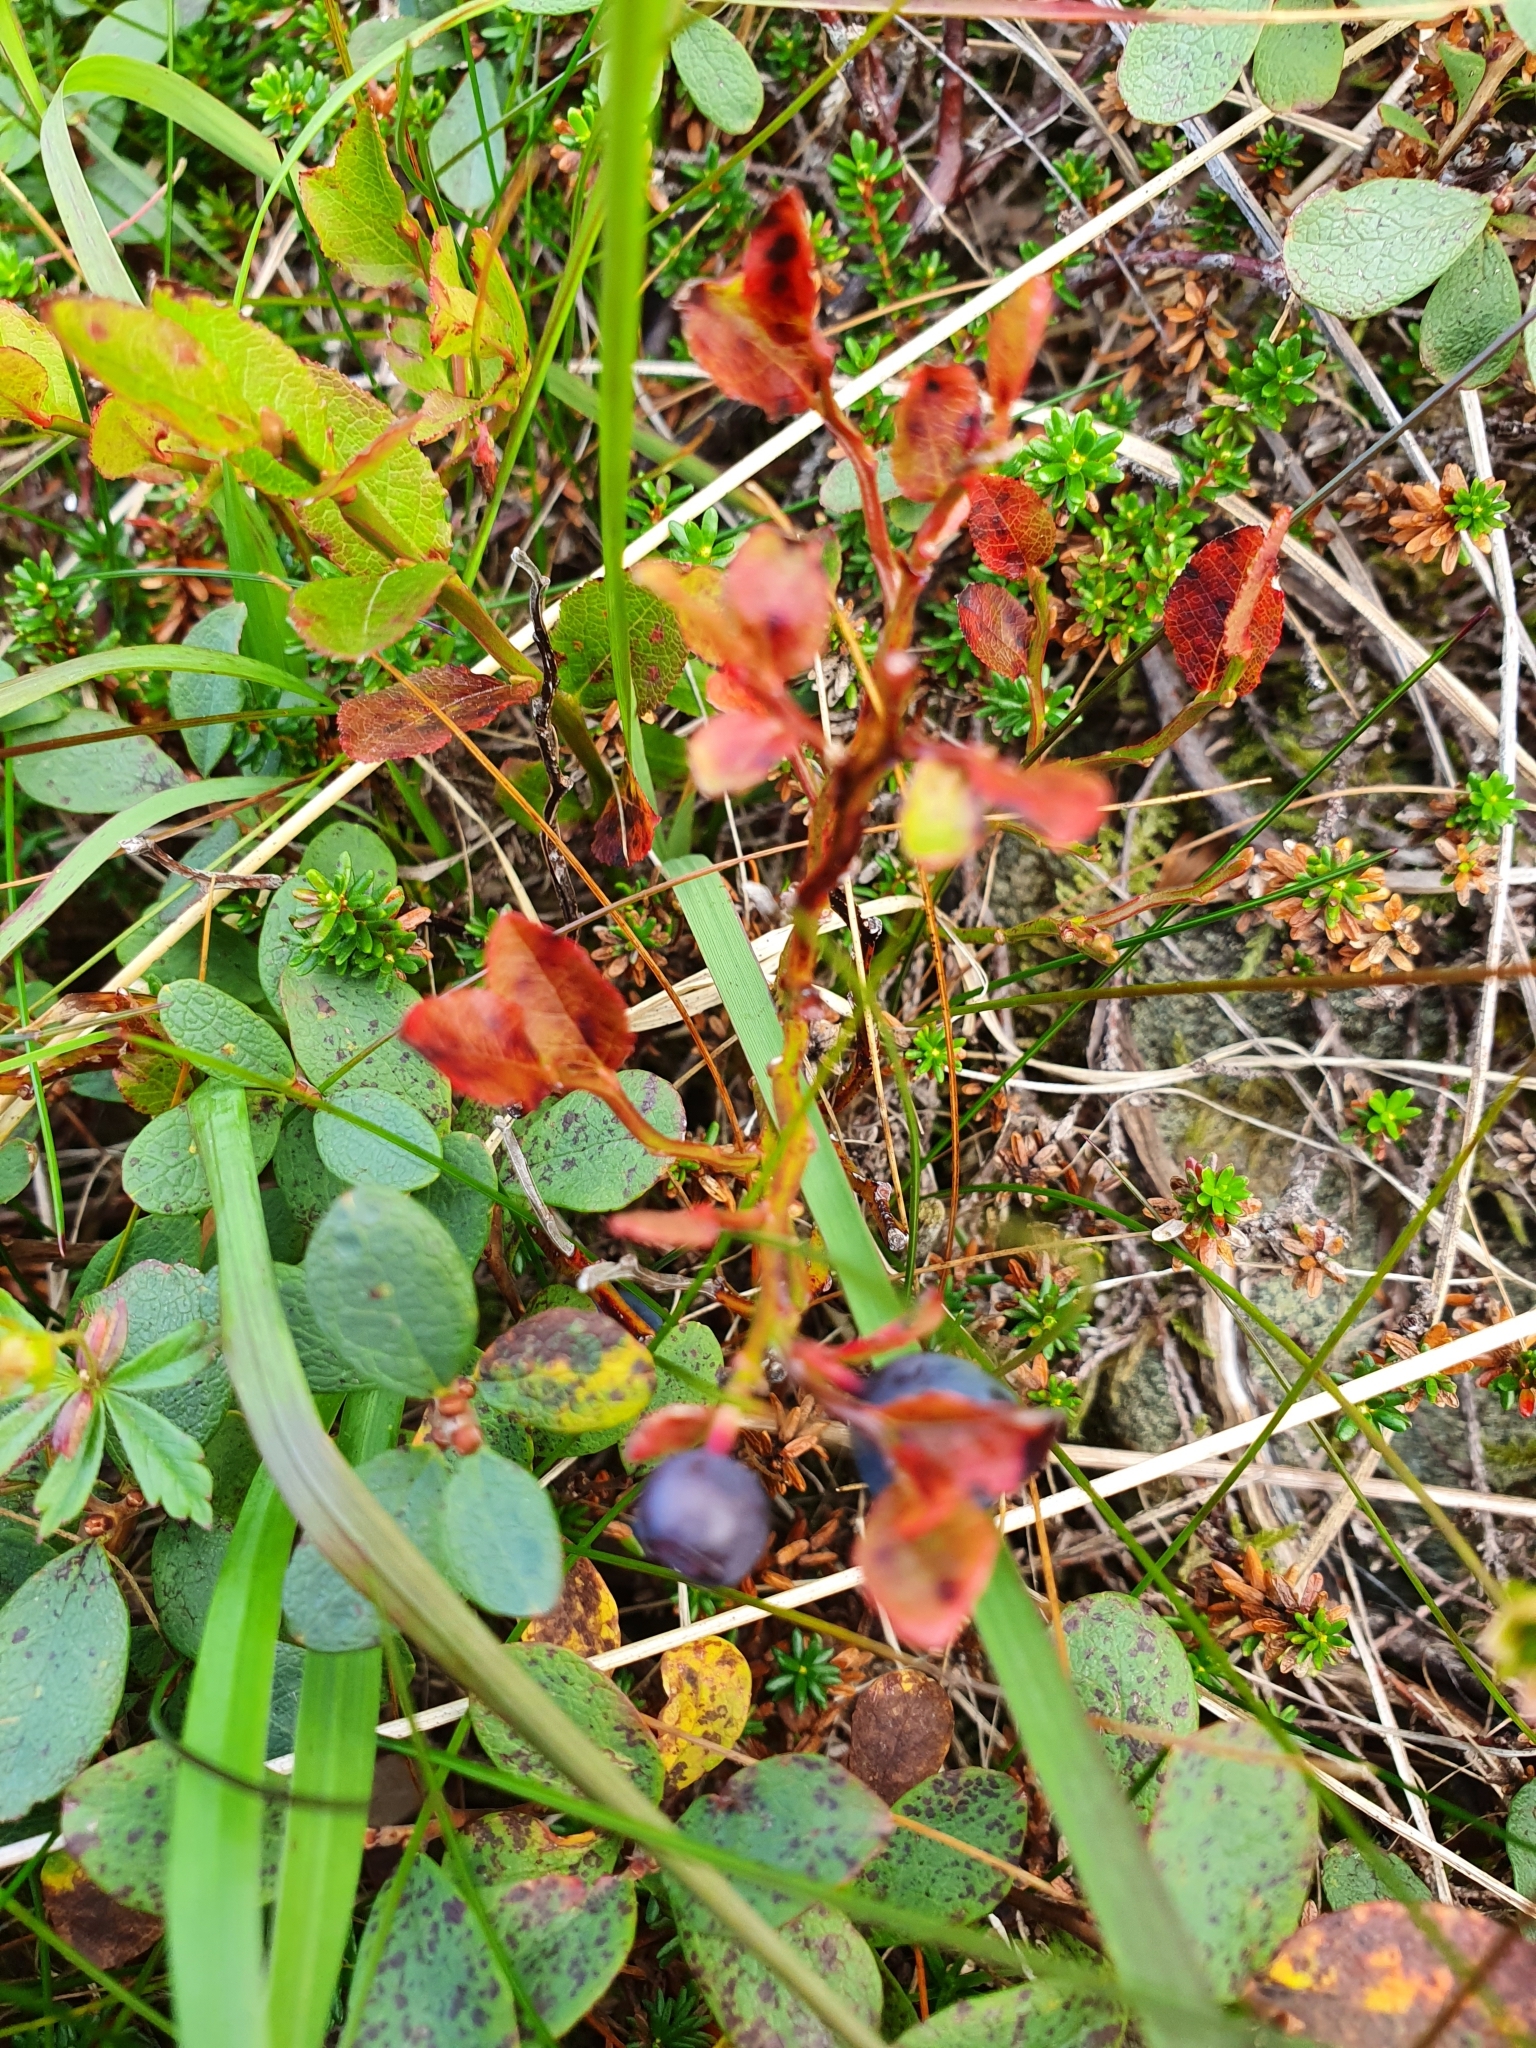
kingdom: Plantae
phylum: Tracheophyta
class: Magnoliopsida
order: Ericales
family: Ericaceae
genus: Vaccinium
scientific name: Vaccinium myrtillus
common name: Bilberry
